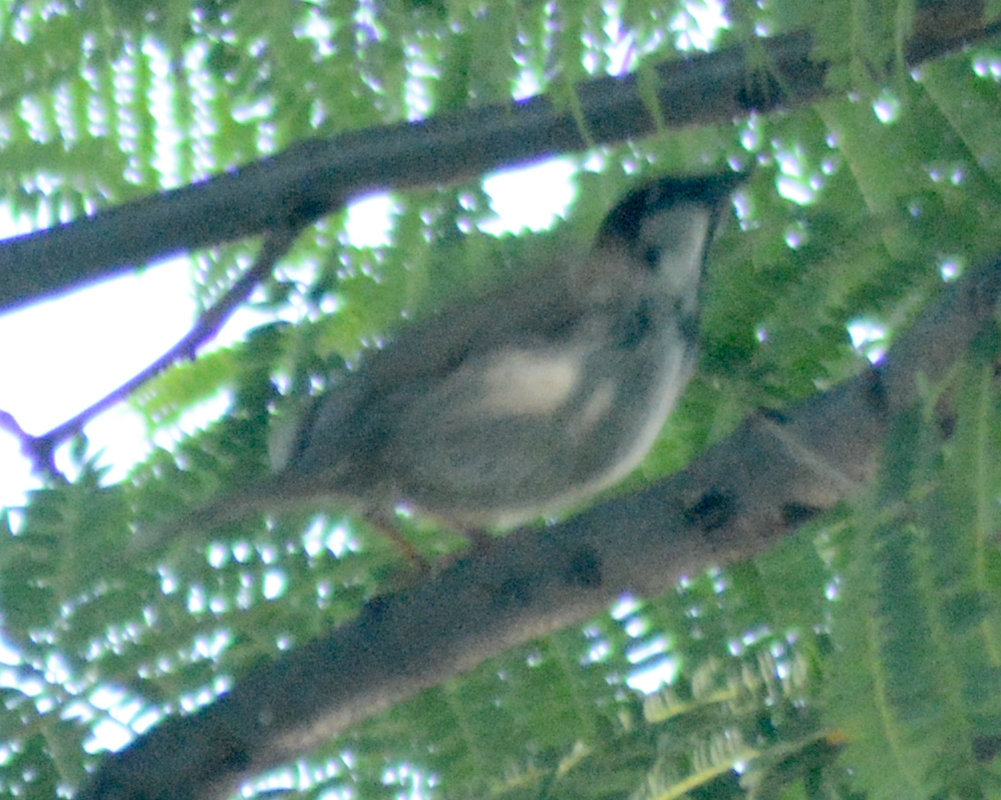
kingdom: Animalia
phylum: Chordata
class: Aves
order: Passeriformes
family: Passeridae
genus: Passer
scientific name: Passer domesticus
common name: House sparrow
